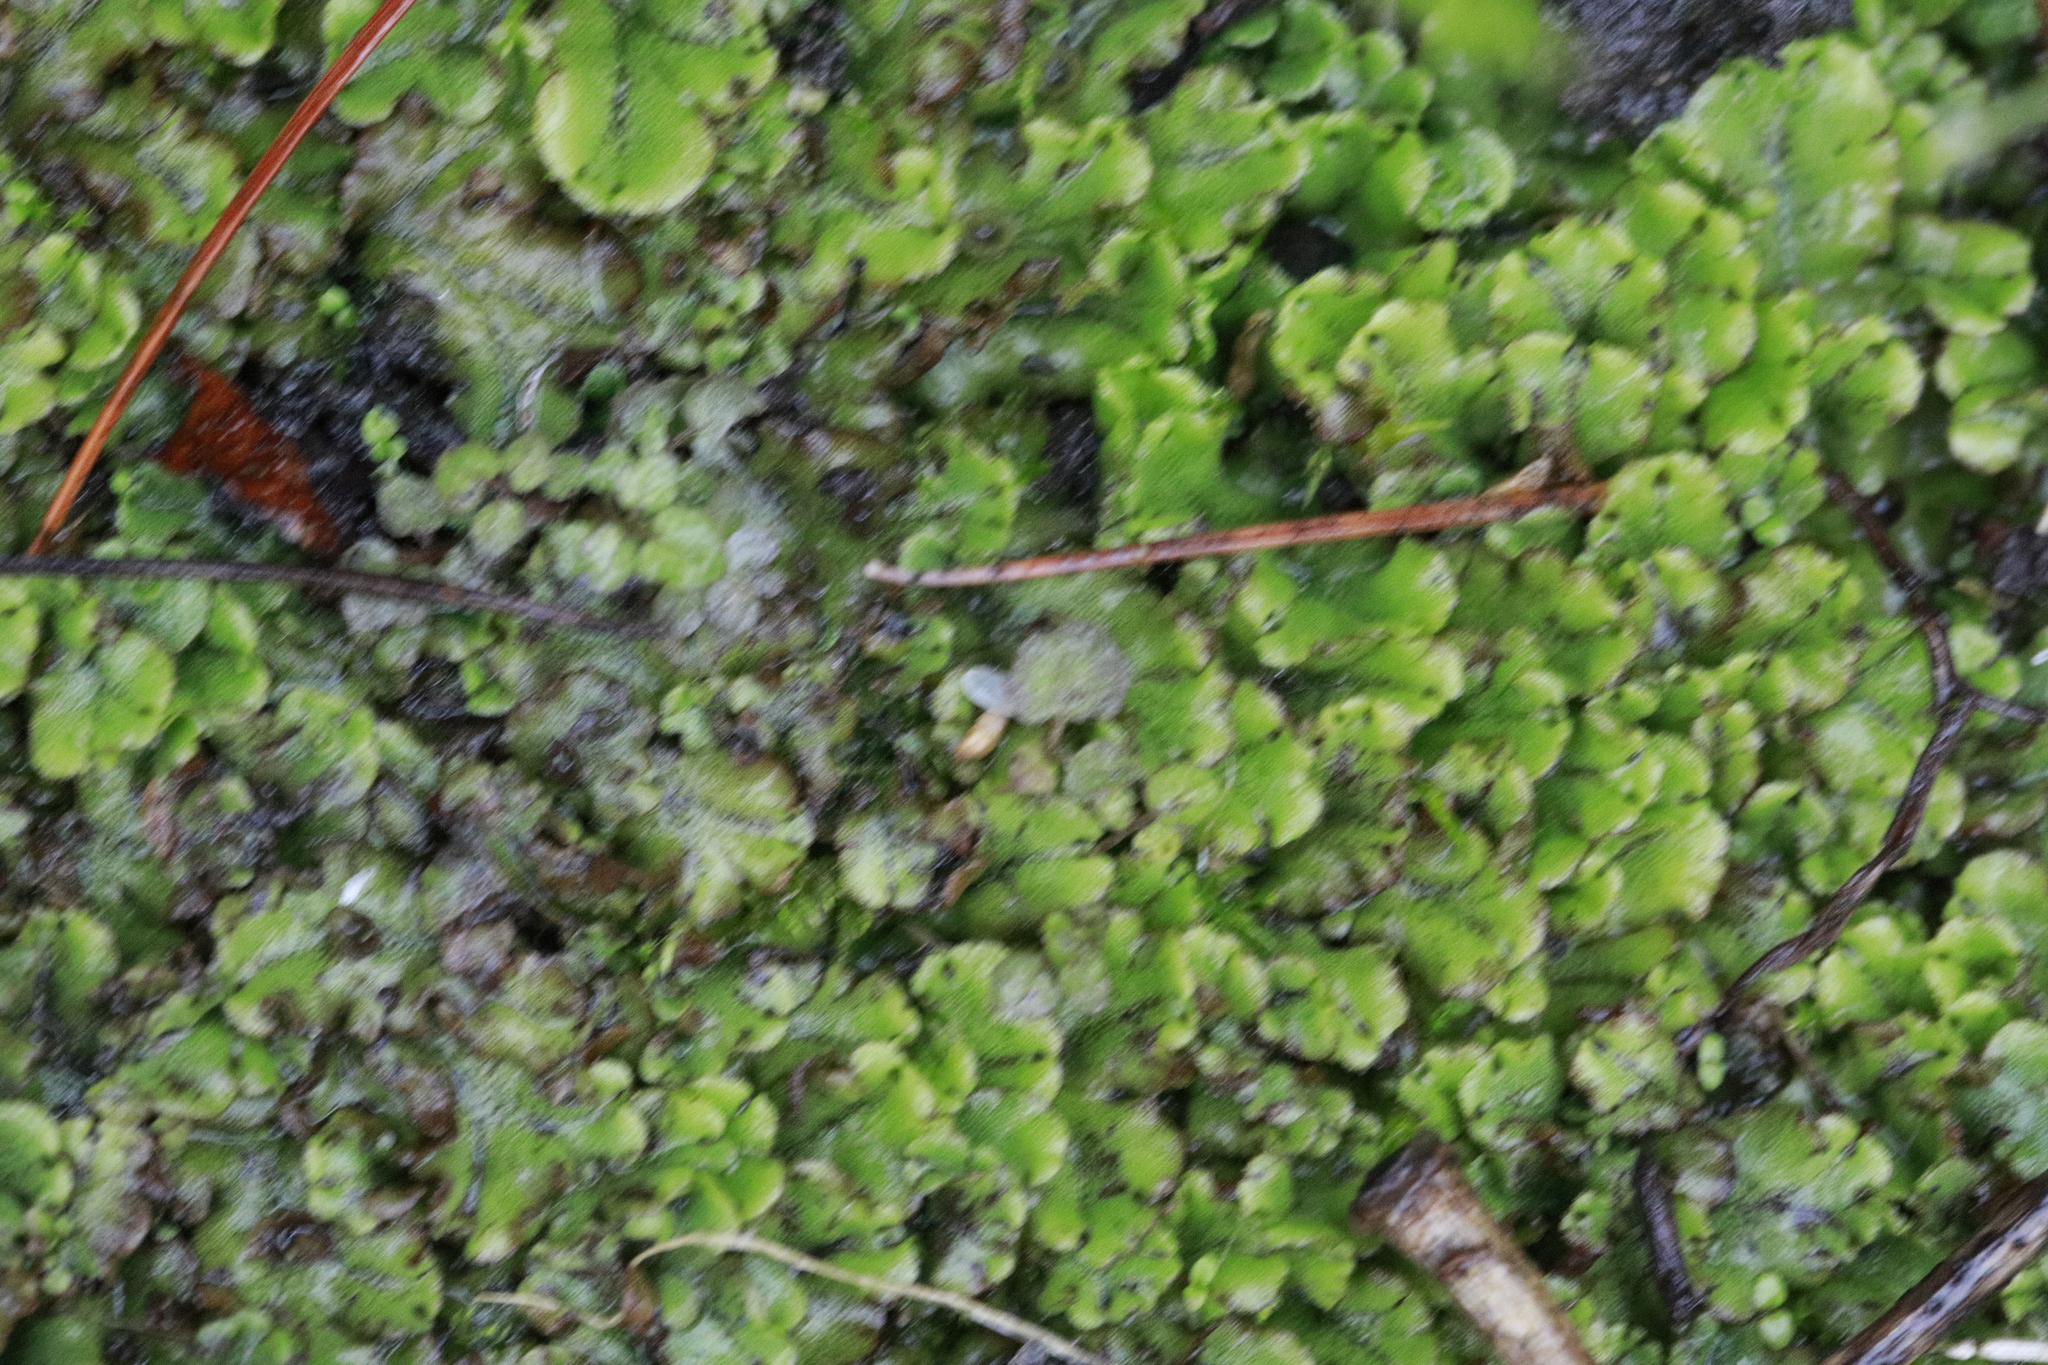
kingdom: Plantae
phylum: Marchantiophyta
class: Marchantiopsida
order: Marchantiales
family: Marchantiaceae
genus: Marchantia
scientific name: Marchantia polymorpha
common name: Common liverwort
